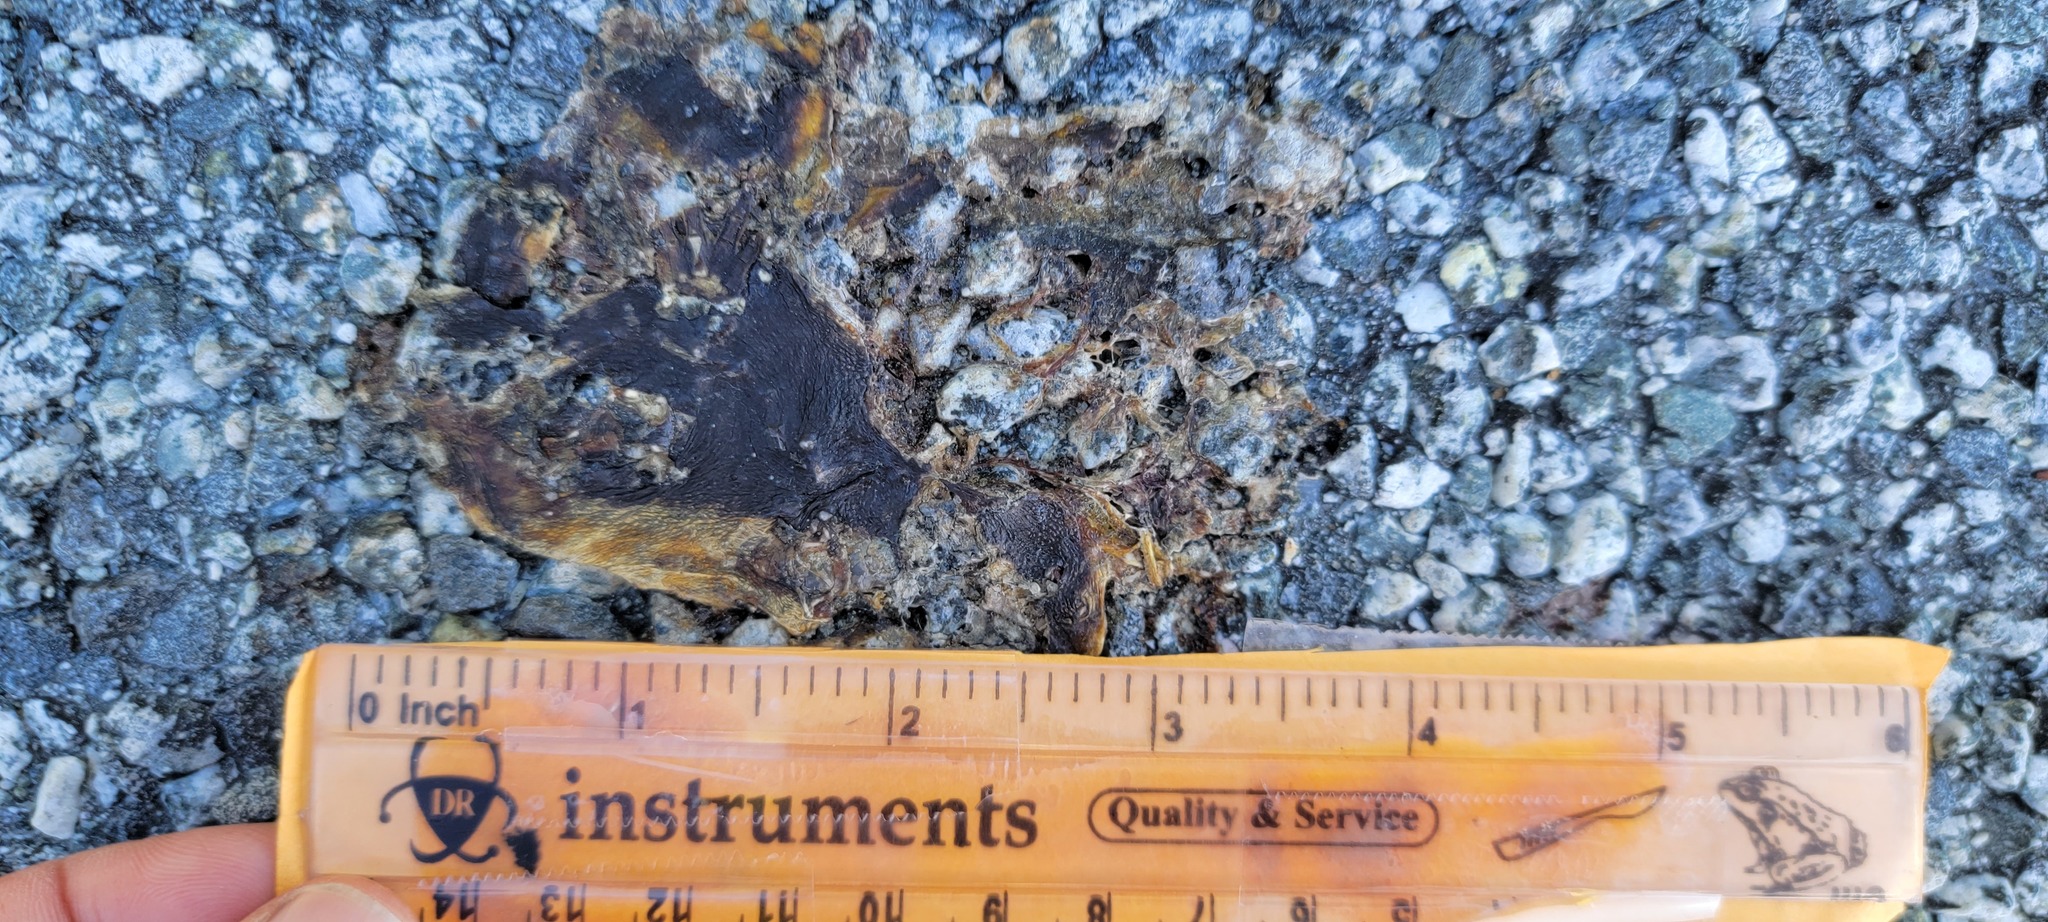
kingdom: Animalia
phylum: Chordata
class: Amphibia
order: Caudata
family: Salamandridae
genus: Taricha
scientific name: Taricha
